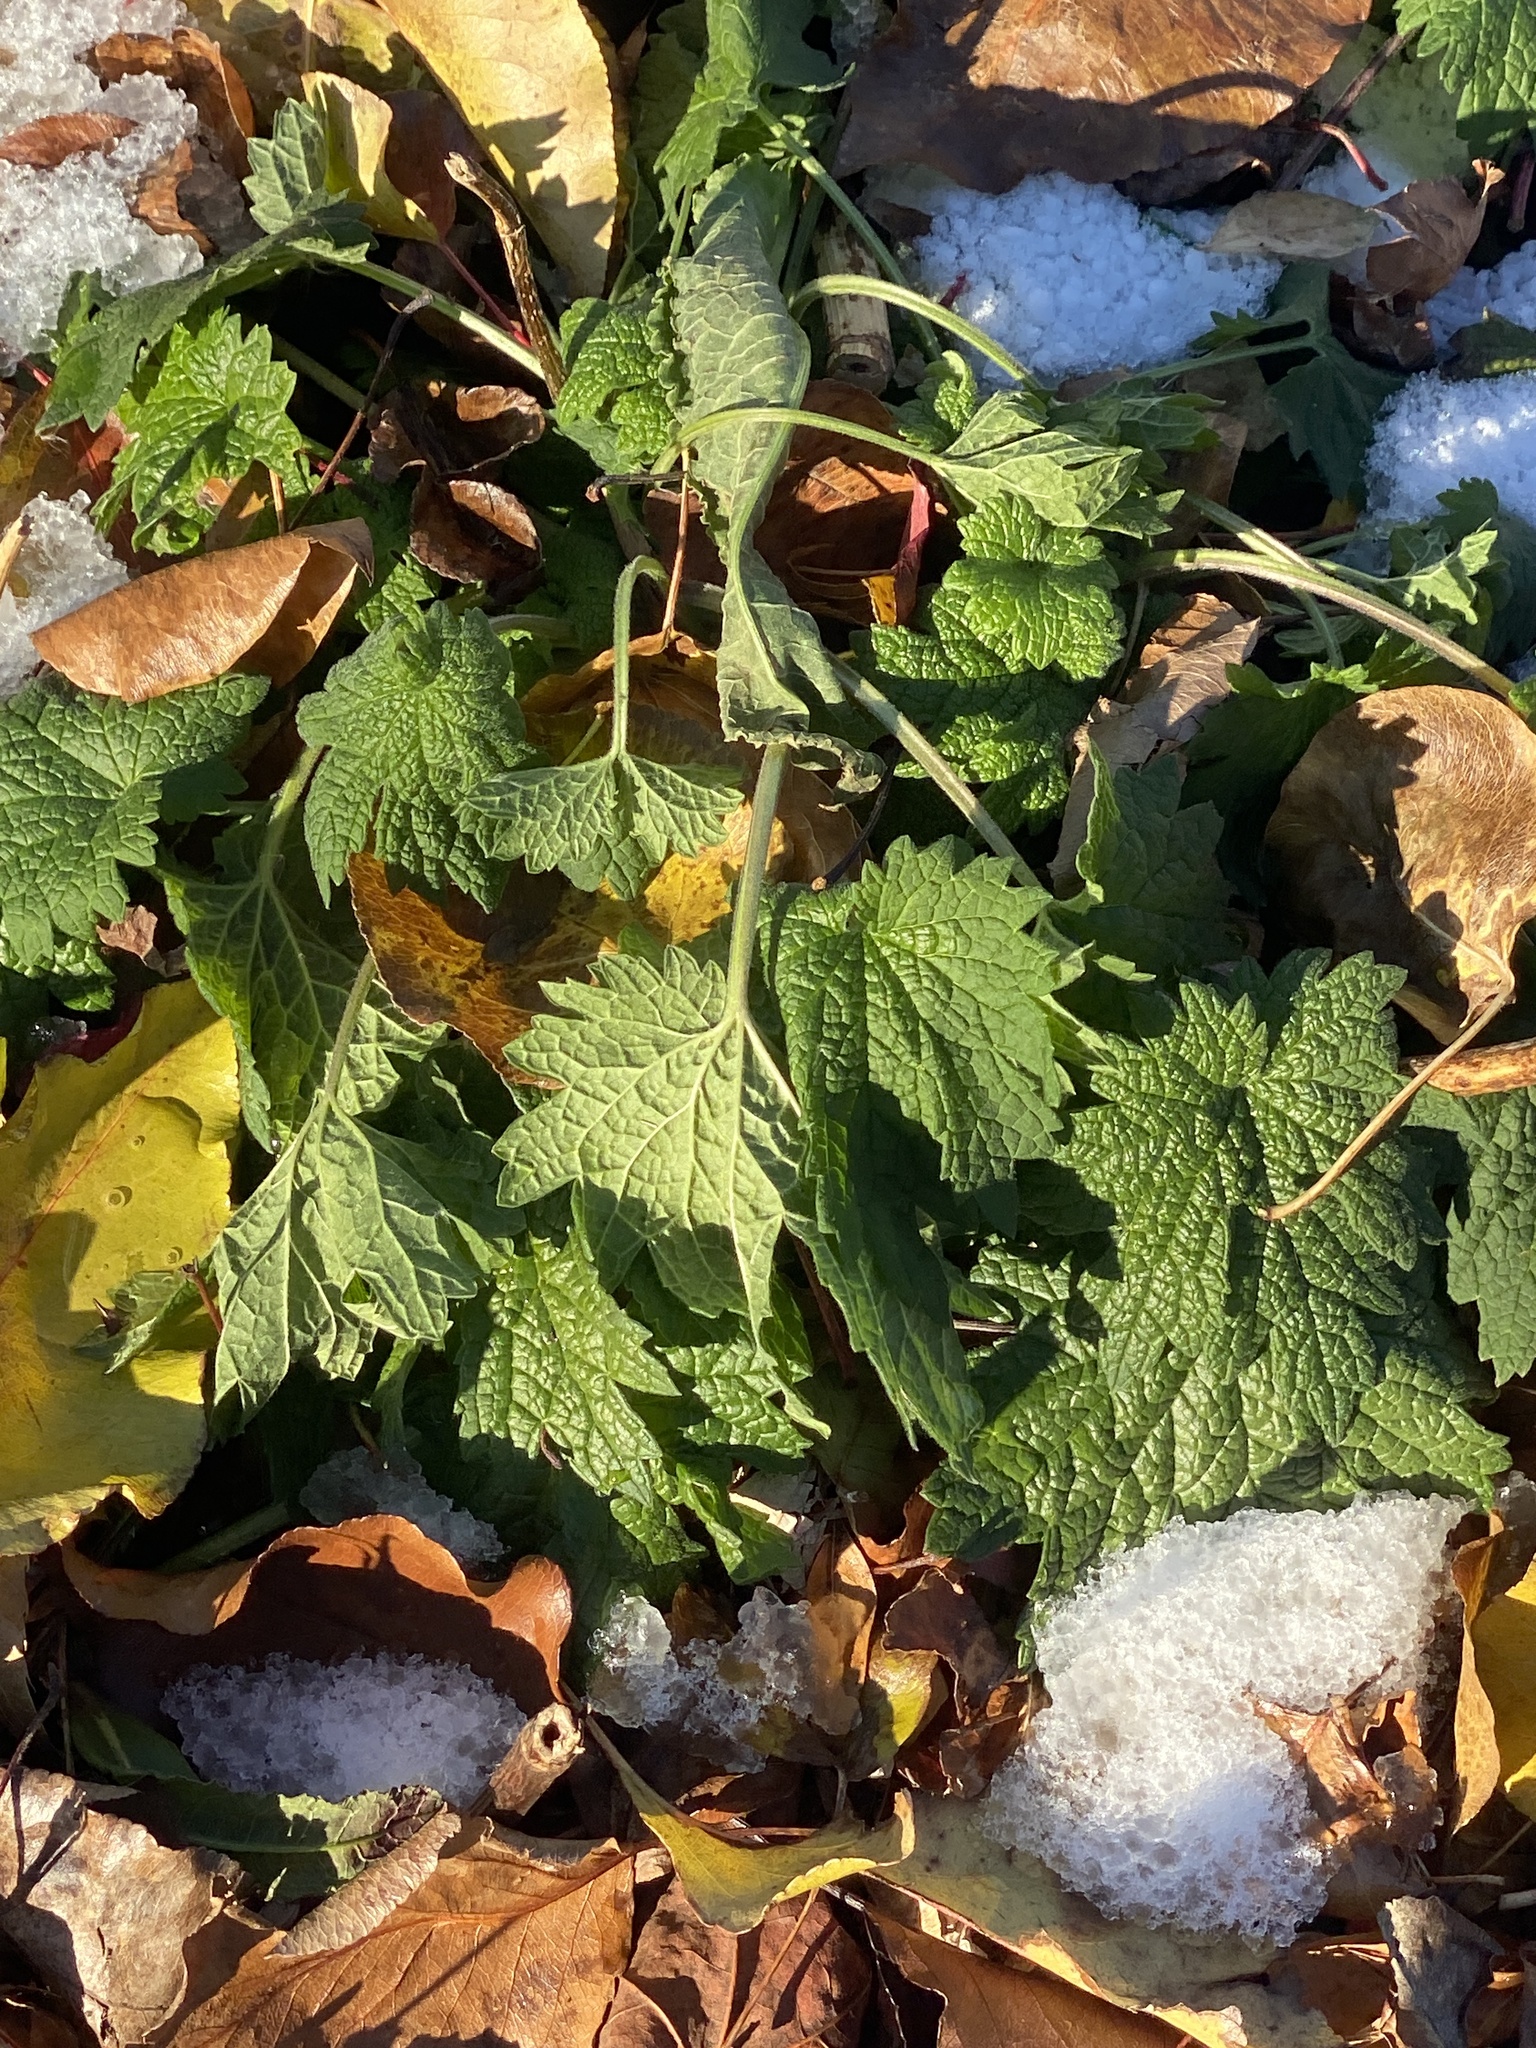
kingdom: Plantae
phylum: Tracheophyta
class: Magnoliopsida
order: Lamiales
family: Lamiaceae
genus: Leonurus
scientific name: Leonurus cardiaca
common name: Motherwort
